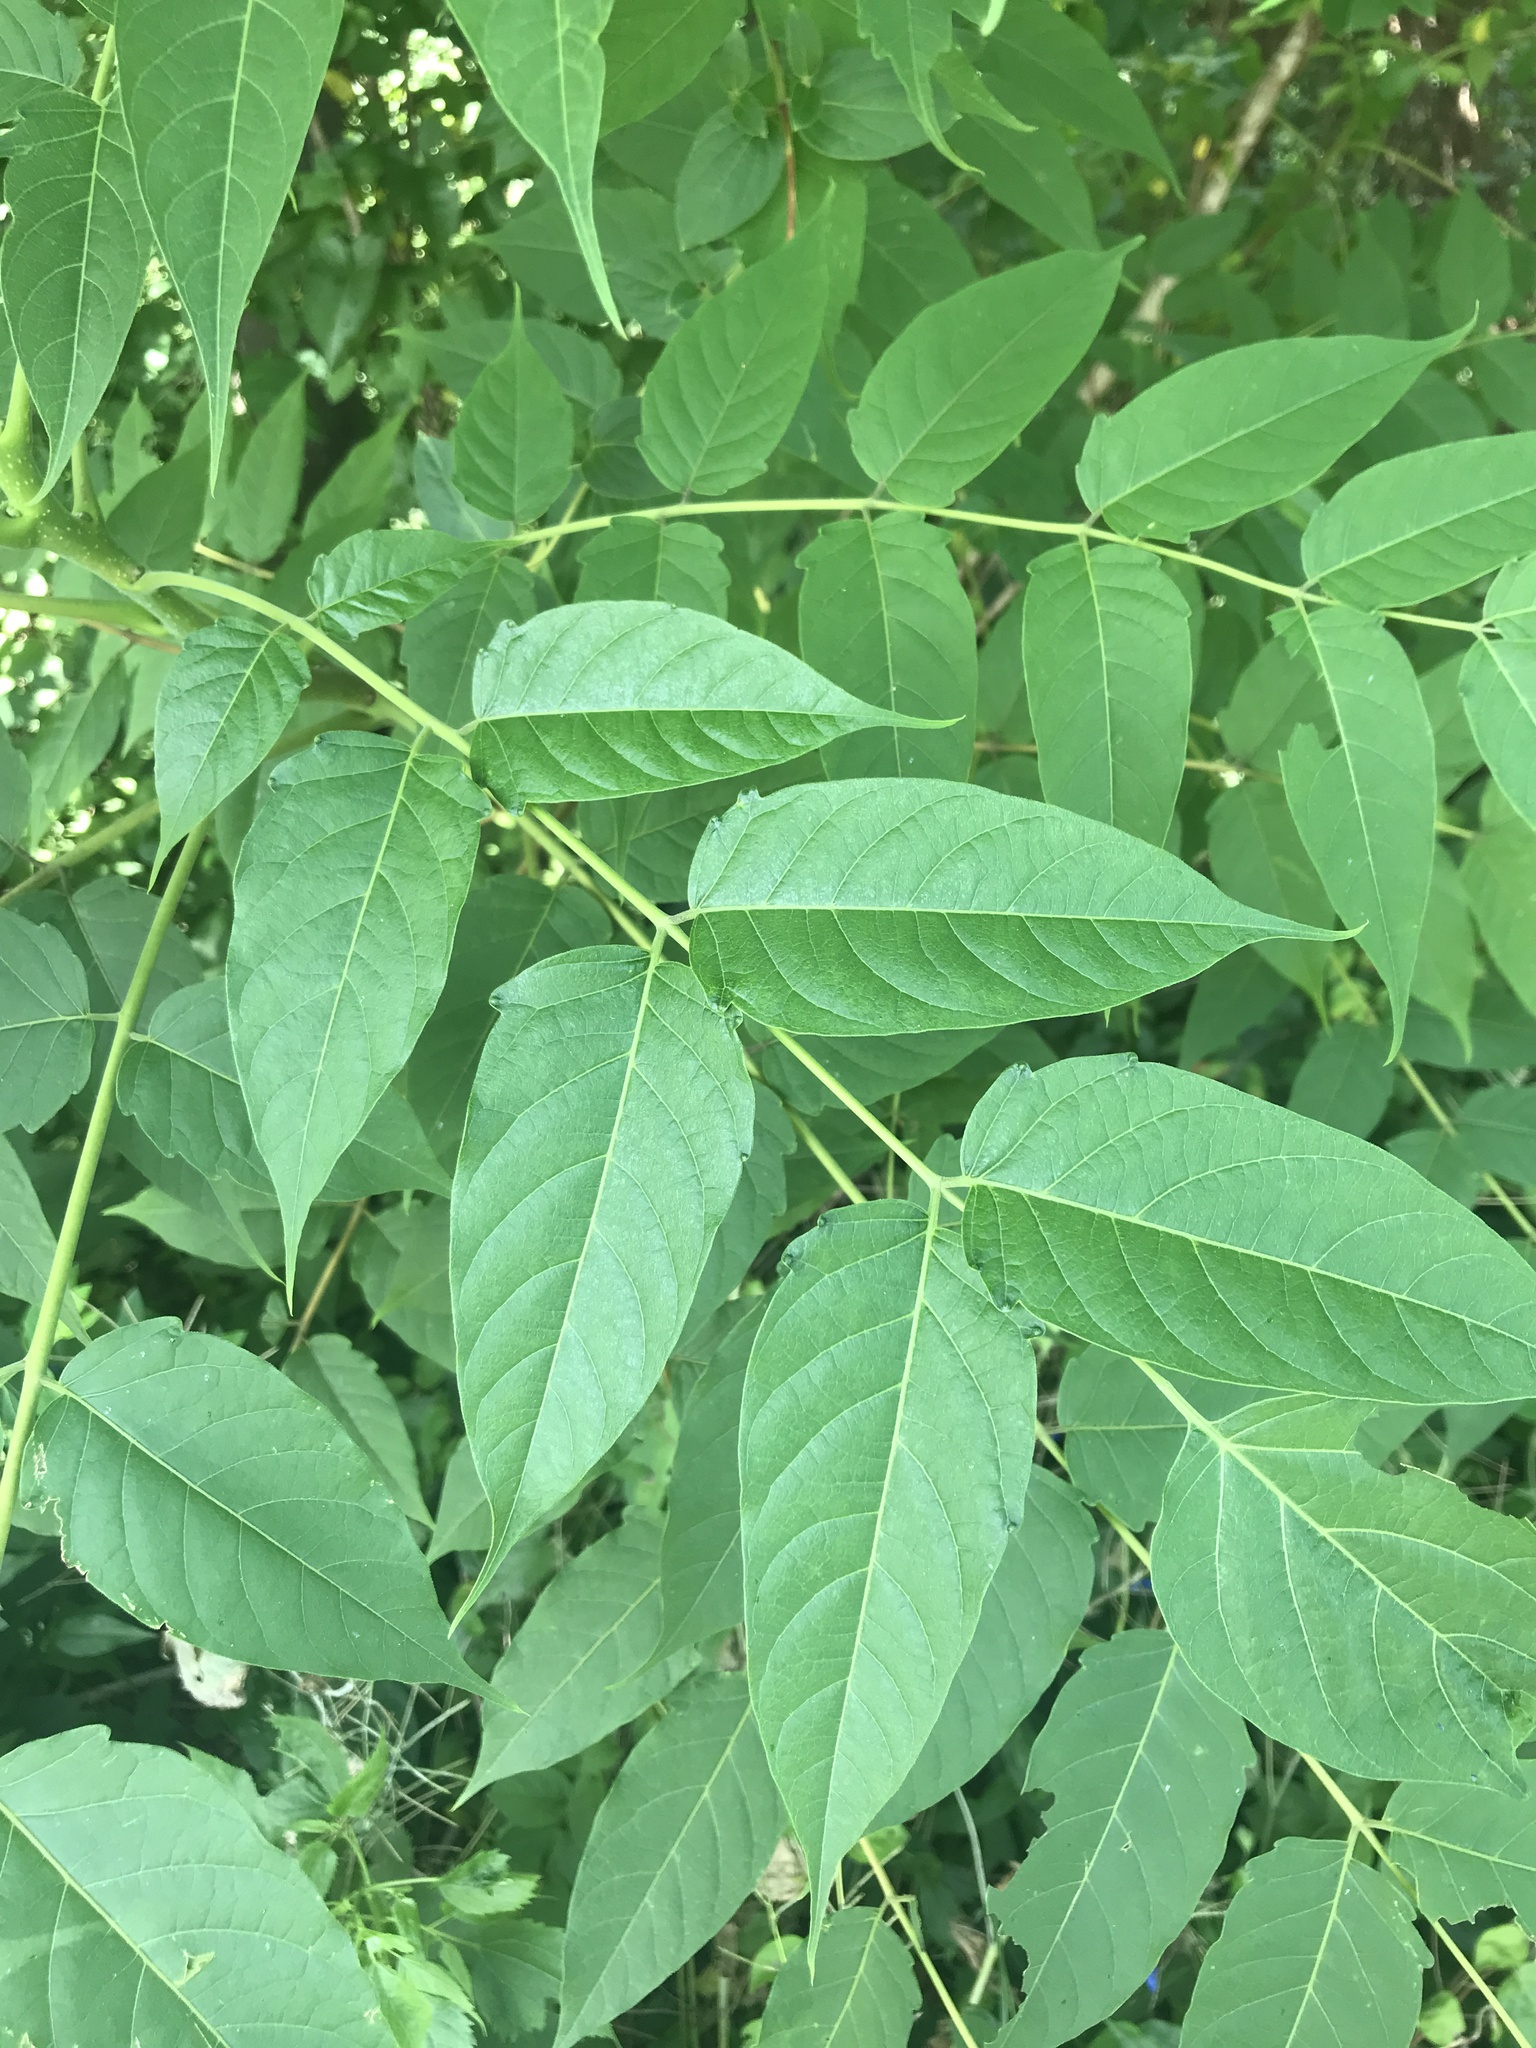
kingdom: Plantae
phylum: Tracheophyta
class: Magnoliopsida
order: Sapindales
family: Simaroubaceae
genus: Ailanthus
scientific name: Ailanthus altissima
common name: Tree-of-heaven
